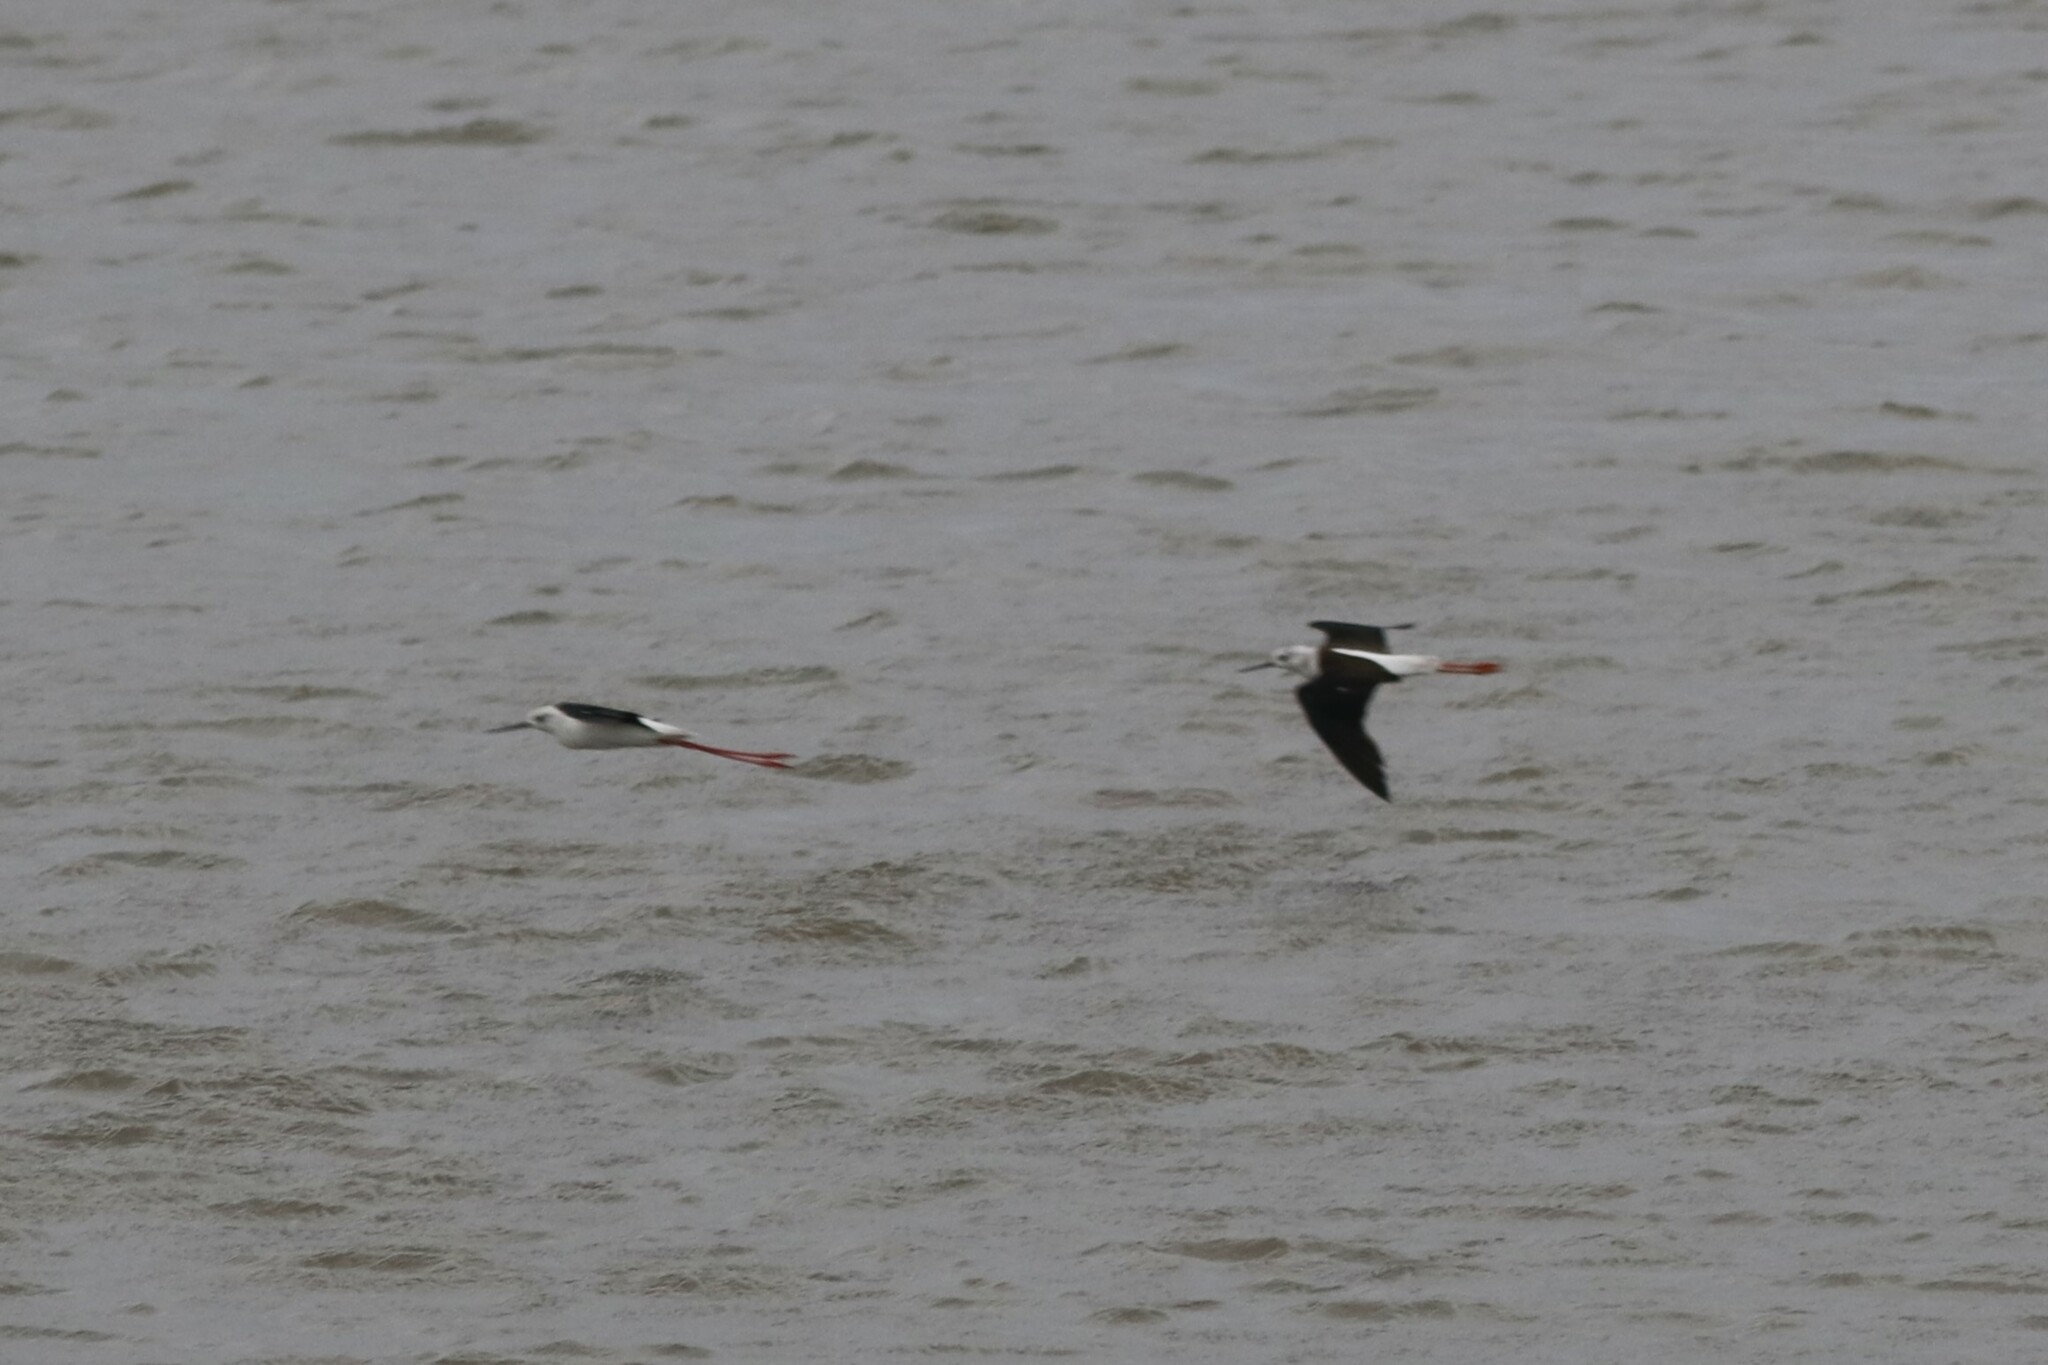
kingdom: Animalia
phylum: Chordata
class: Aves
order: Charadriiformes
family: Recurvirostridae
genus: Himantopus
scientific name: Himantopus himantopus
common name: Black-winged stilt
